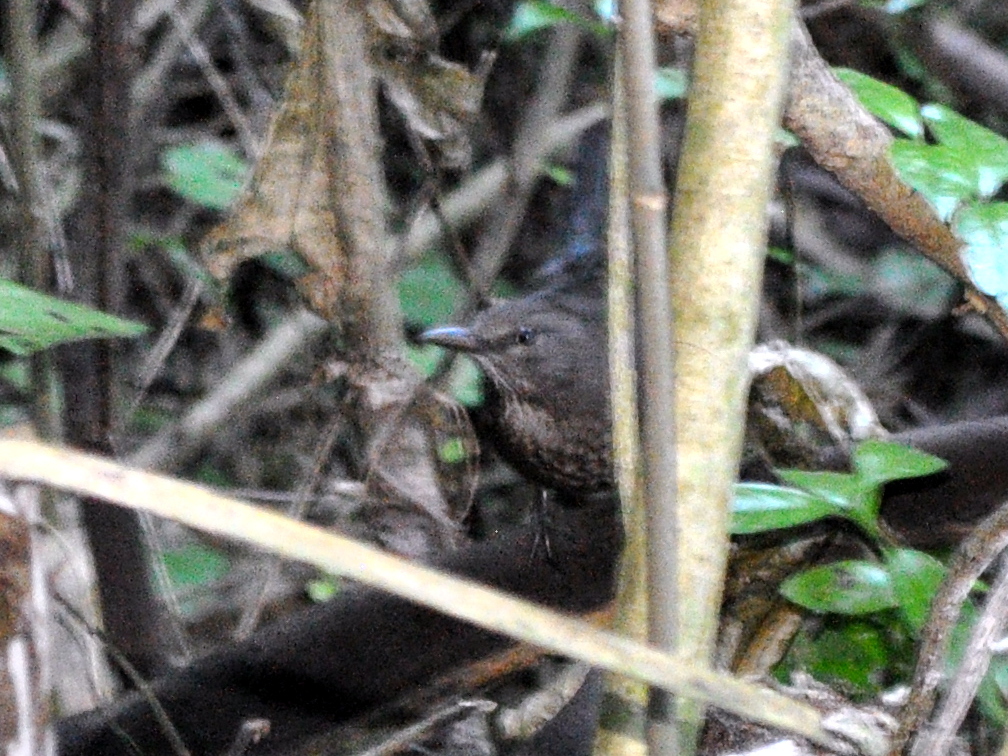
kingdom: Animalia
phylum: Chordata
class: Aves
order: Passeriformes
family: Turdidae
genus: Turdus
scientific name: Turdus merula
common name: Common blackbird
